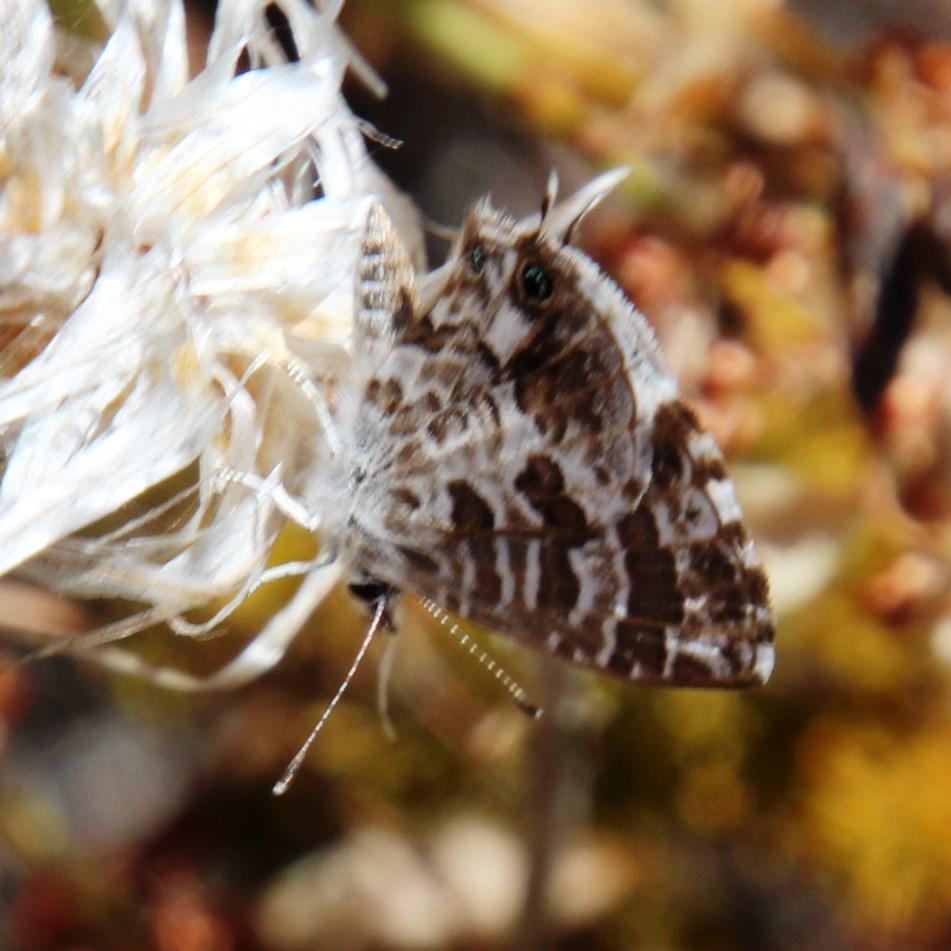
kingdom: Animalia
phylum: Arthropoda
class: Insecta
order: Lepidoptera
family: Lycaenidae
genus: Cacyreus
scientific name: Cacyreus lingeus
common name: Bush bronze
